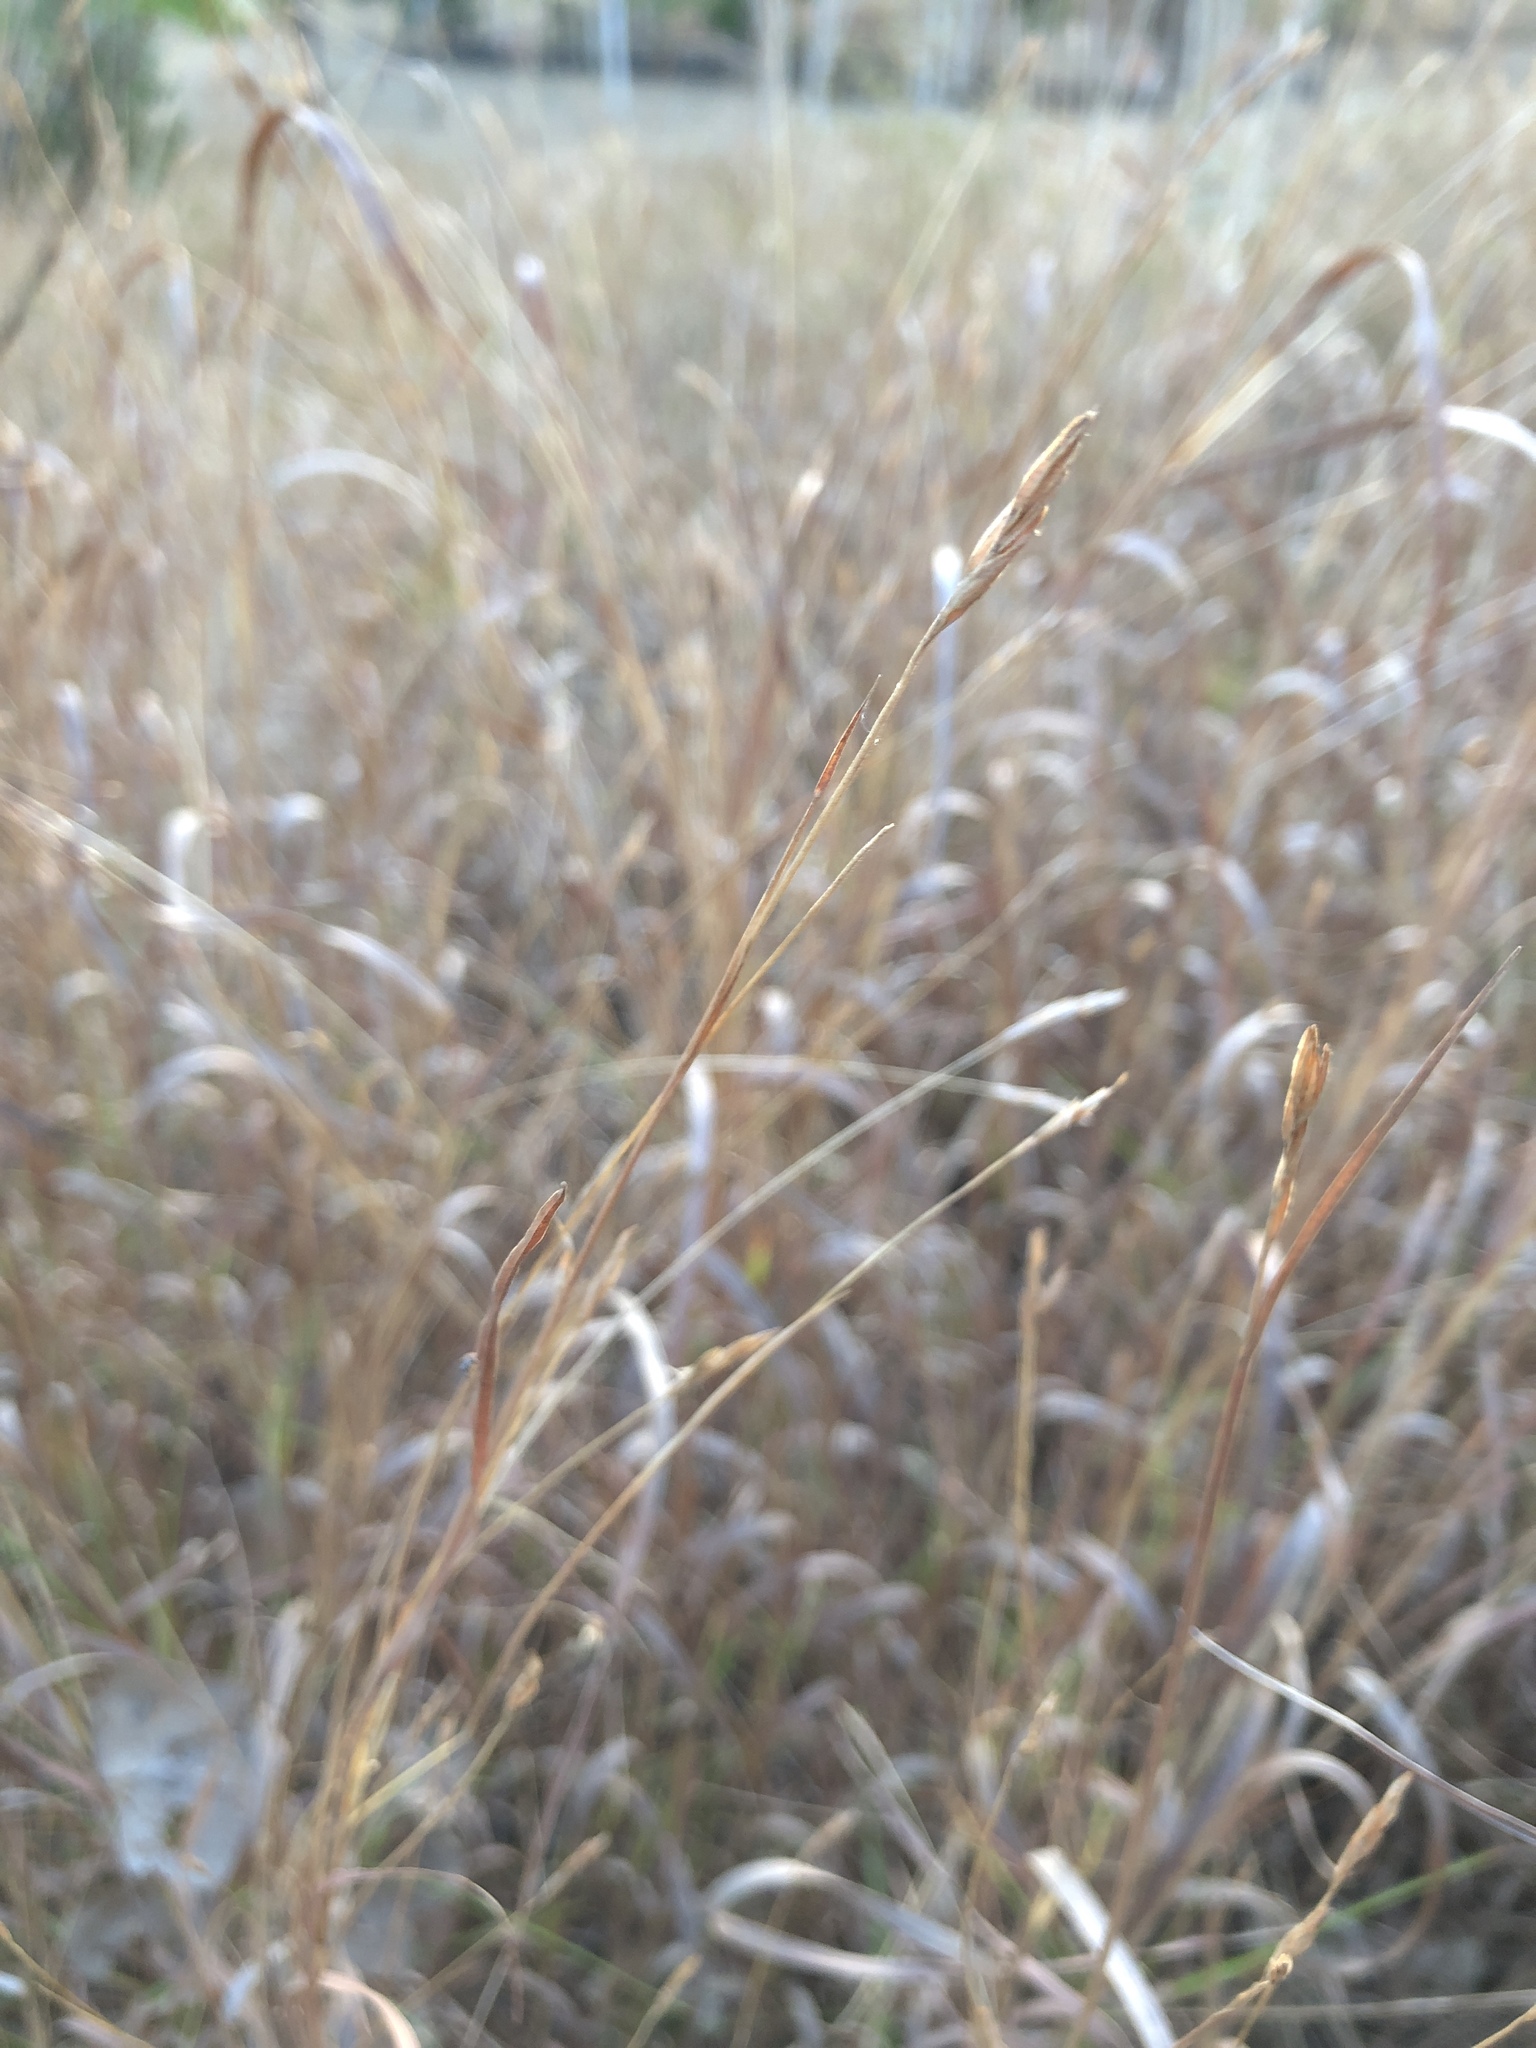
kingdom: Plantae
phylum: Tracheophyta
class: Liliopsida
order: Poales
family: Poaceae
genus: Heteropogon
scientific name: Heteropogon contortus
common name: Tanglehead
